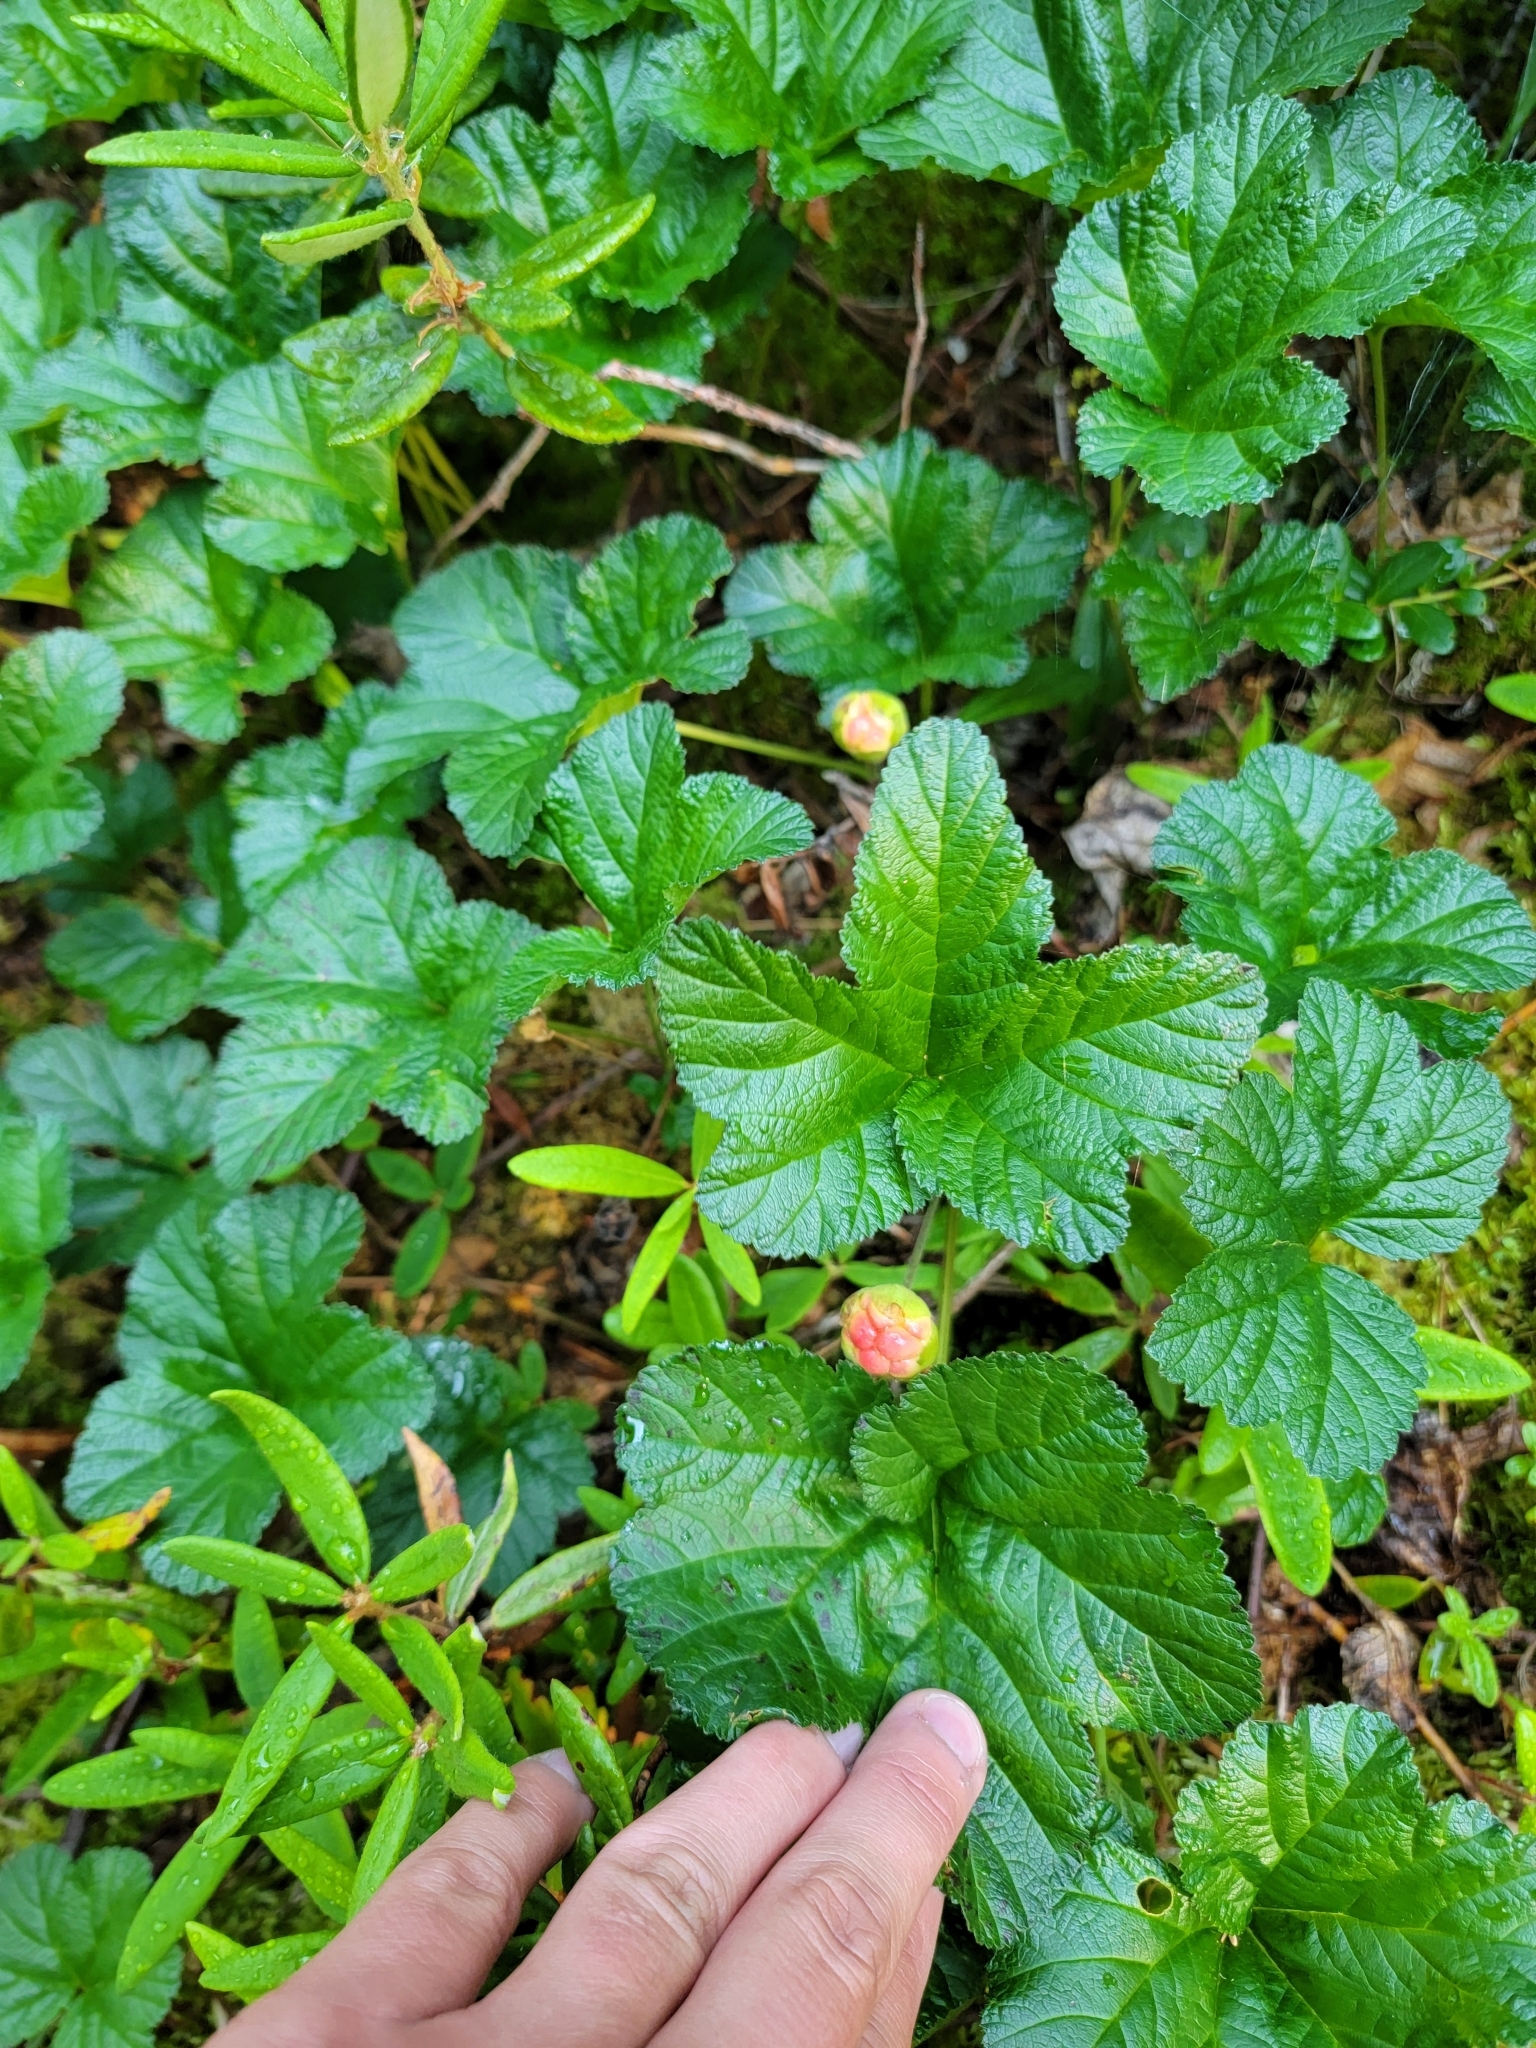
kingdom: Plantae
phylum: Tracheophyta
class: Magnoliopsida
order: Rosales
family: Rosaceae
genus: Rubus
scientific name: Rubus chamaemorus
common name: Cloudberry
